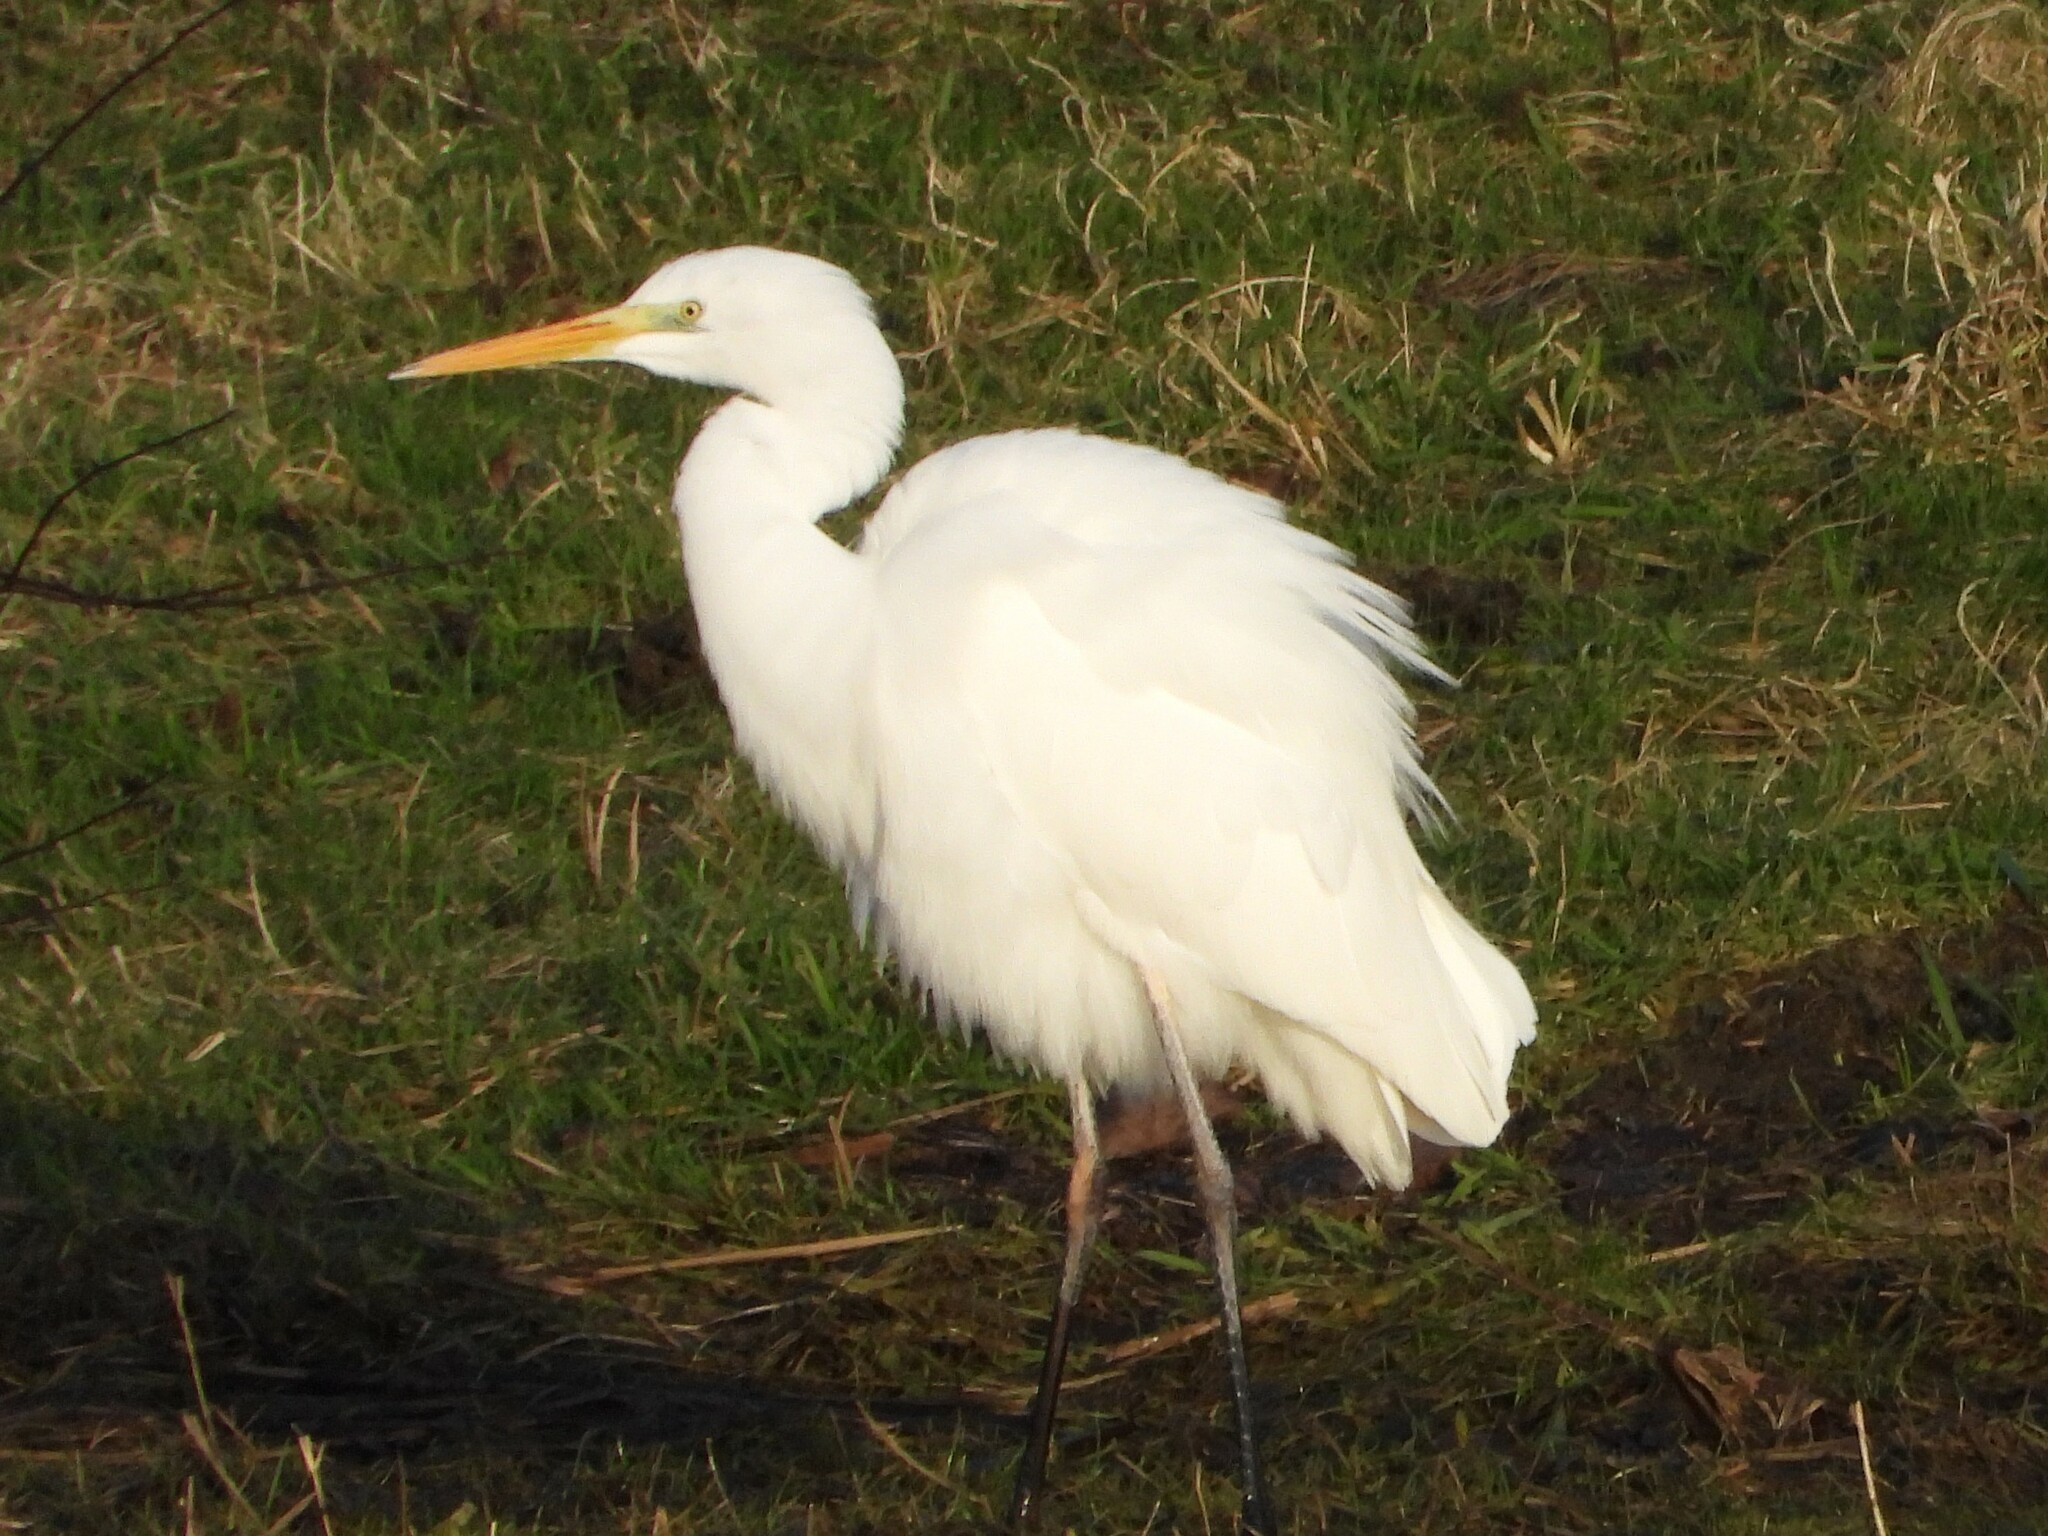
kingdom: Animalia
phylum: Chordata
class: Aves
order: Pelecaniformes
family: Ardeidae
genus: Ardea
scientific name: Ardea alba
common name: Great egret
